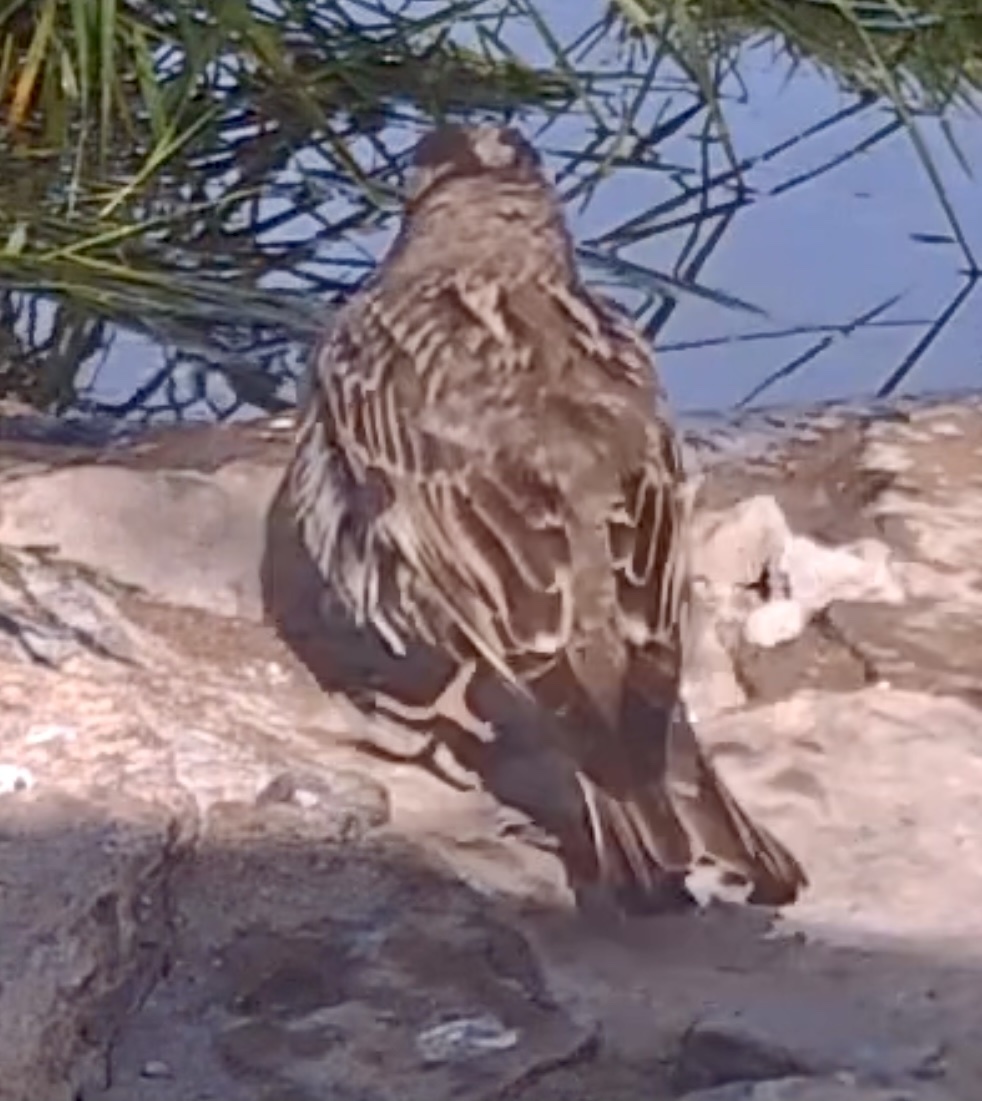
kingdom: Animalia
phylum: Chordata
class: Aves
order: Passeriformes
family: Passeridae
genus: Petronia
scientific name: Petronia petronia
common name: Rock sparrow
